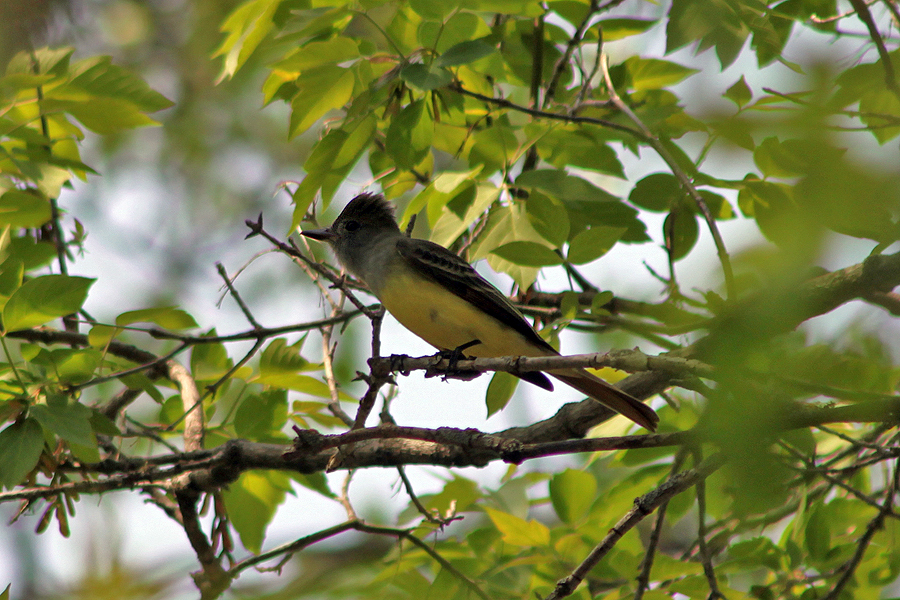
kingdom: Animalia
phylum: Chordata
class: Aves
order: Passeriformes
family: Tyrannidae
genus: Myiarchus
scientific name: Myiarchus crinitus
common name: Great crested flycatcher
